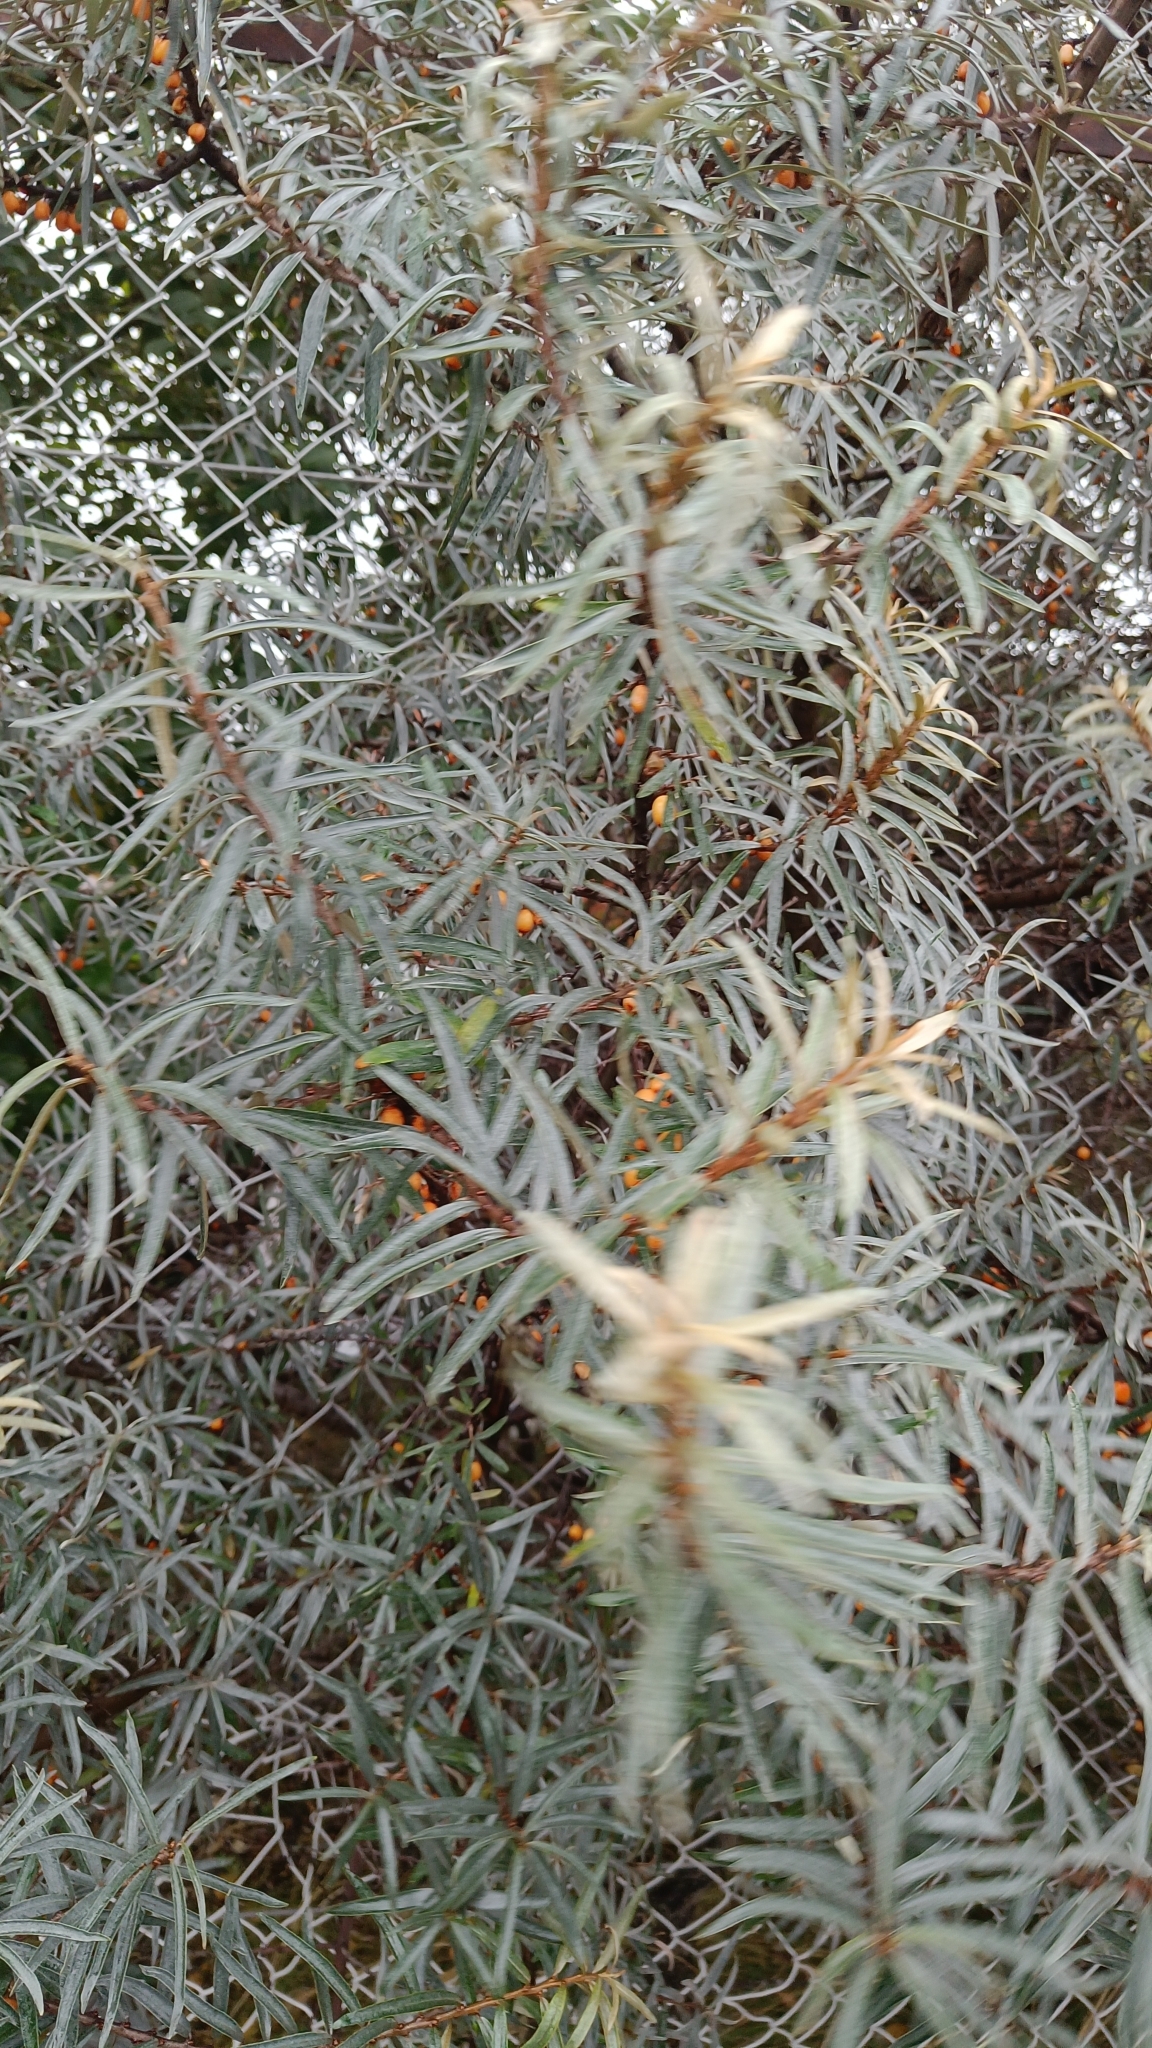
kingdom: Plantae
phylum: Tracheophyta
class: Magnoliopsida
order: Rosales
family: Elaeagnaceae
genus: Hippophae
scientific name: Hippophae rhamnoides
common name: Sea-buckthorn
